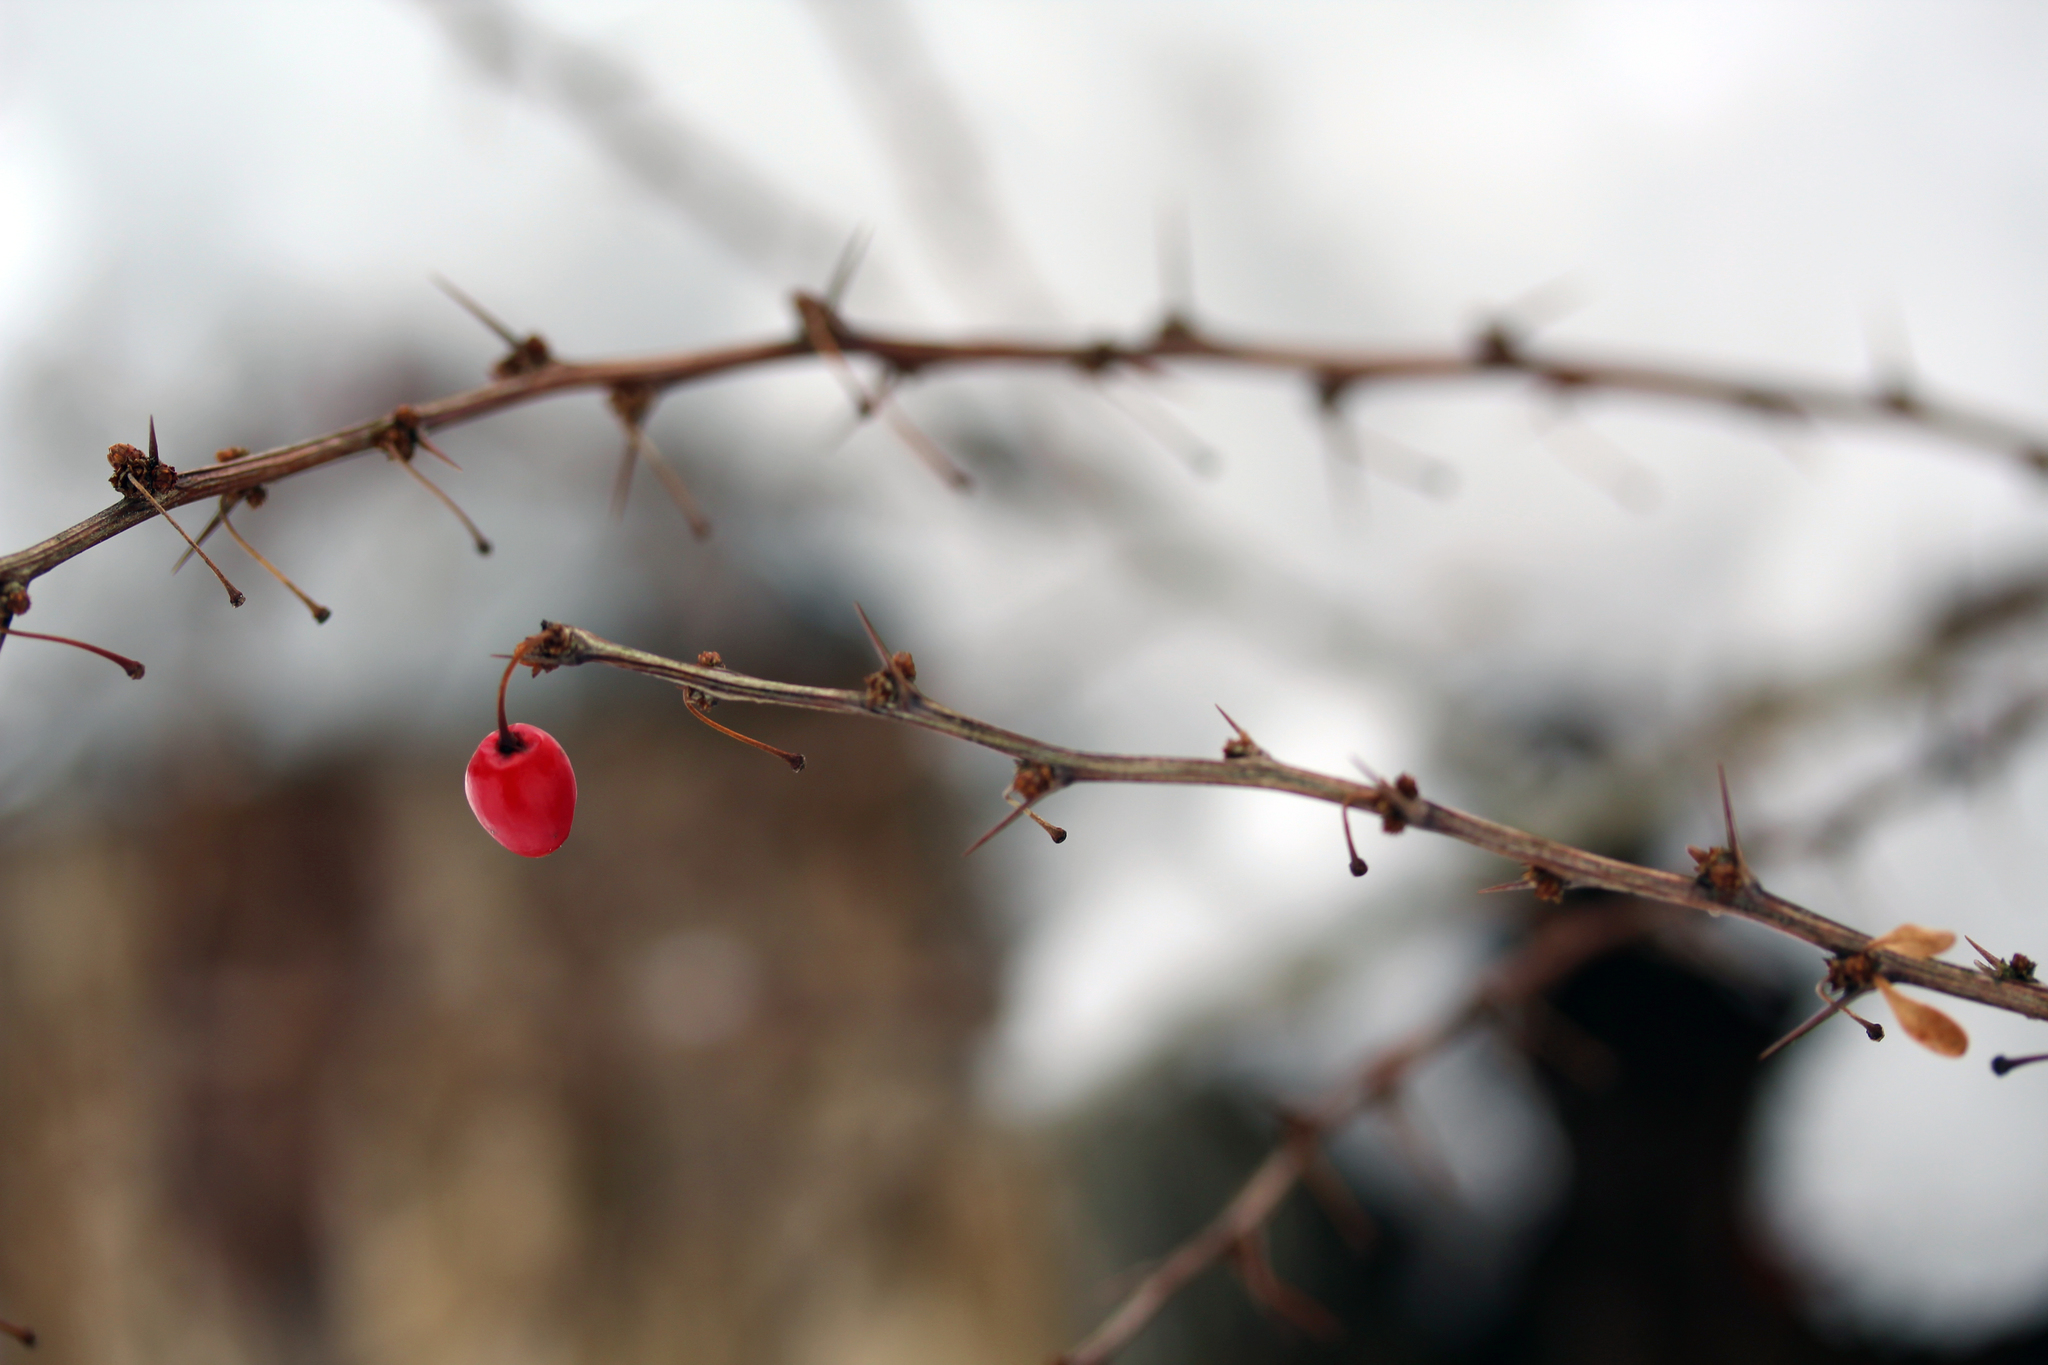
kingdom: Plantae
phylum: Tracheophyta
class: Magnoliopsida
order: Ranunculales
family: Berberidaceae
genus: Berberis
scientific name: Berberis thunbergii
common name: Japanese barberry
